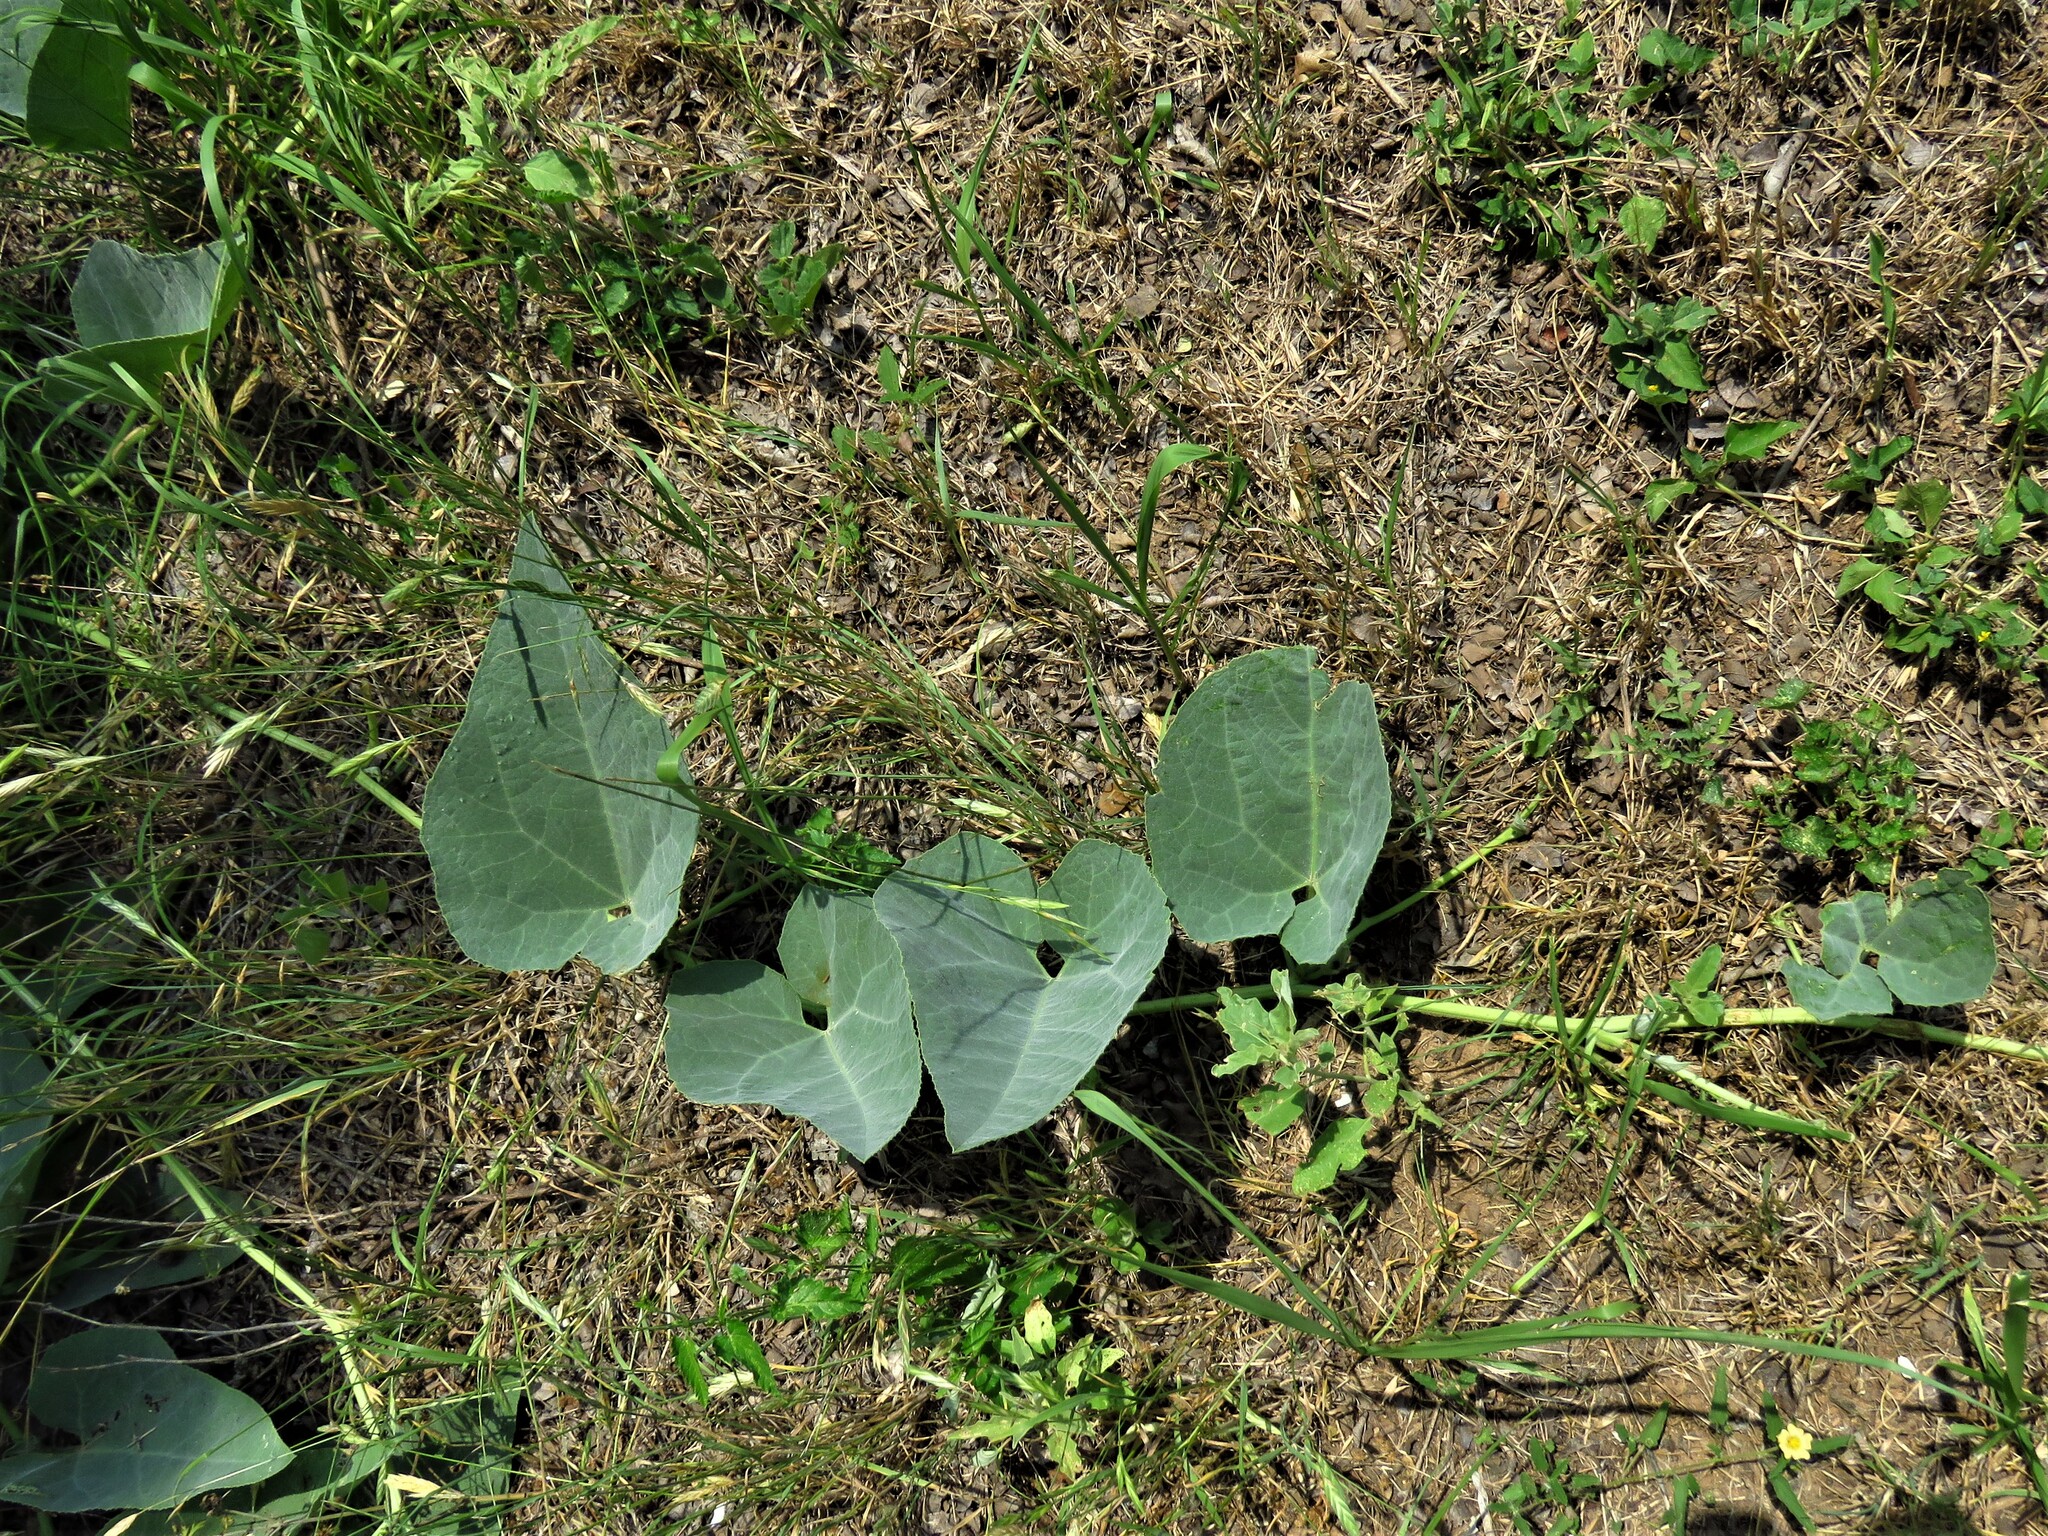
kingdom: Plantae
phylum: Tracheophyta
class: Magnoliopsida
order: Cucurbitales
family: Cucurbitaceae
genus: Cucurbita
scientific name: Cucurbita foetidissima
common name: Buffalo gourd
